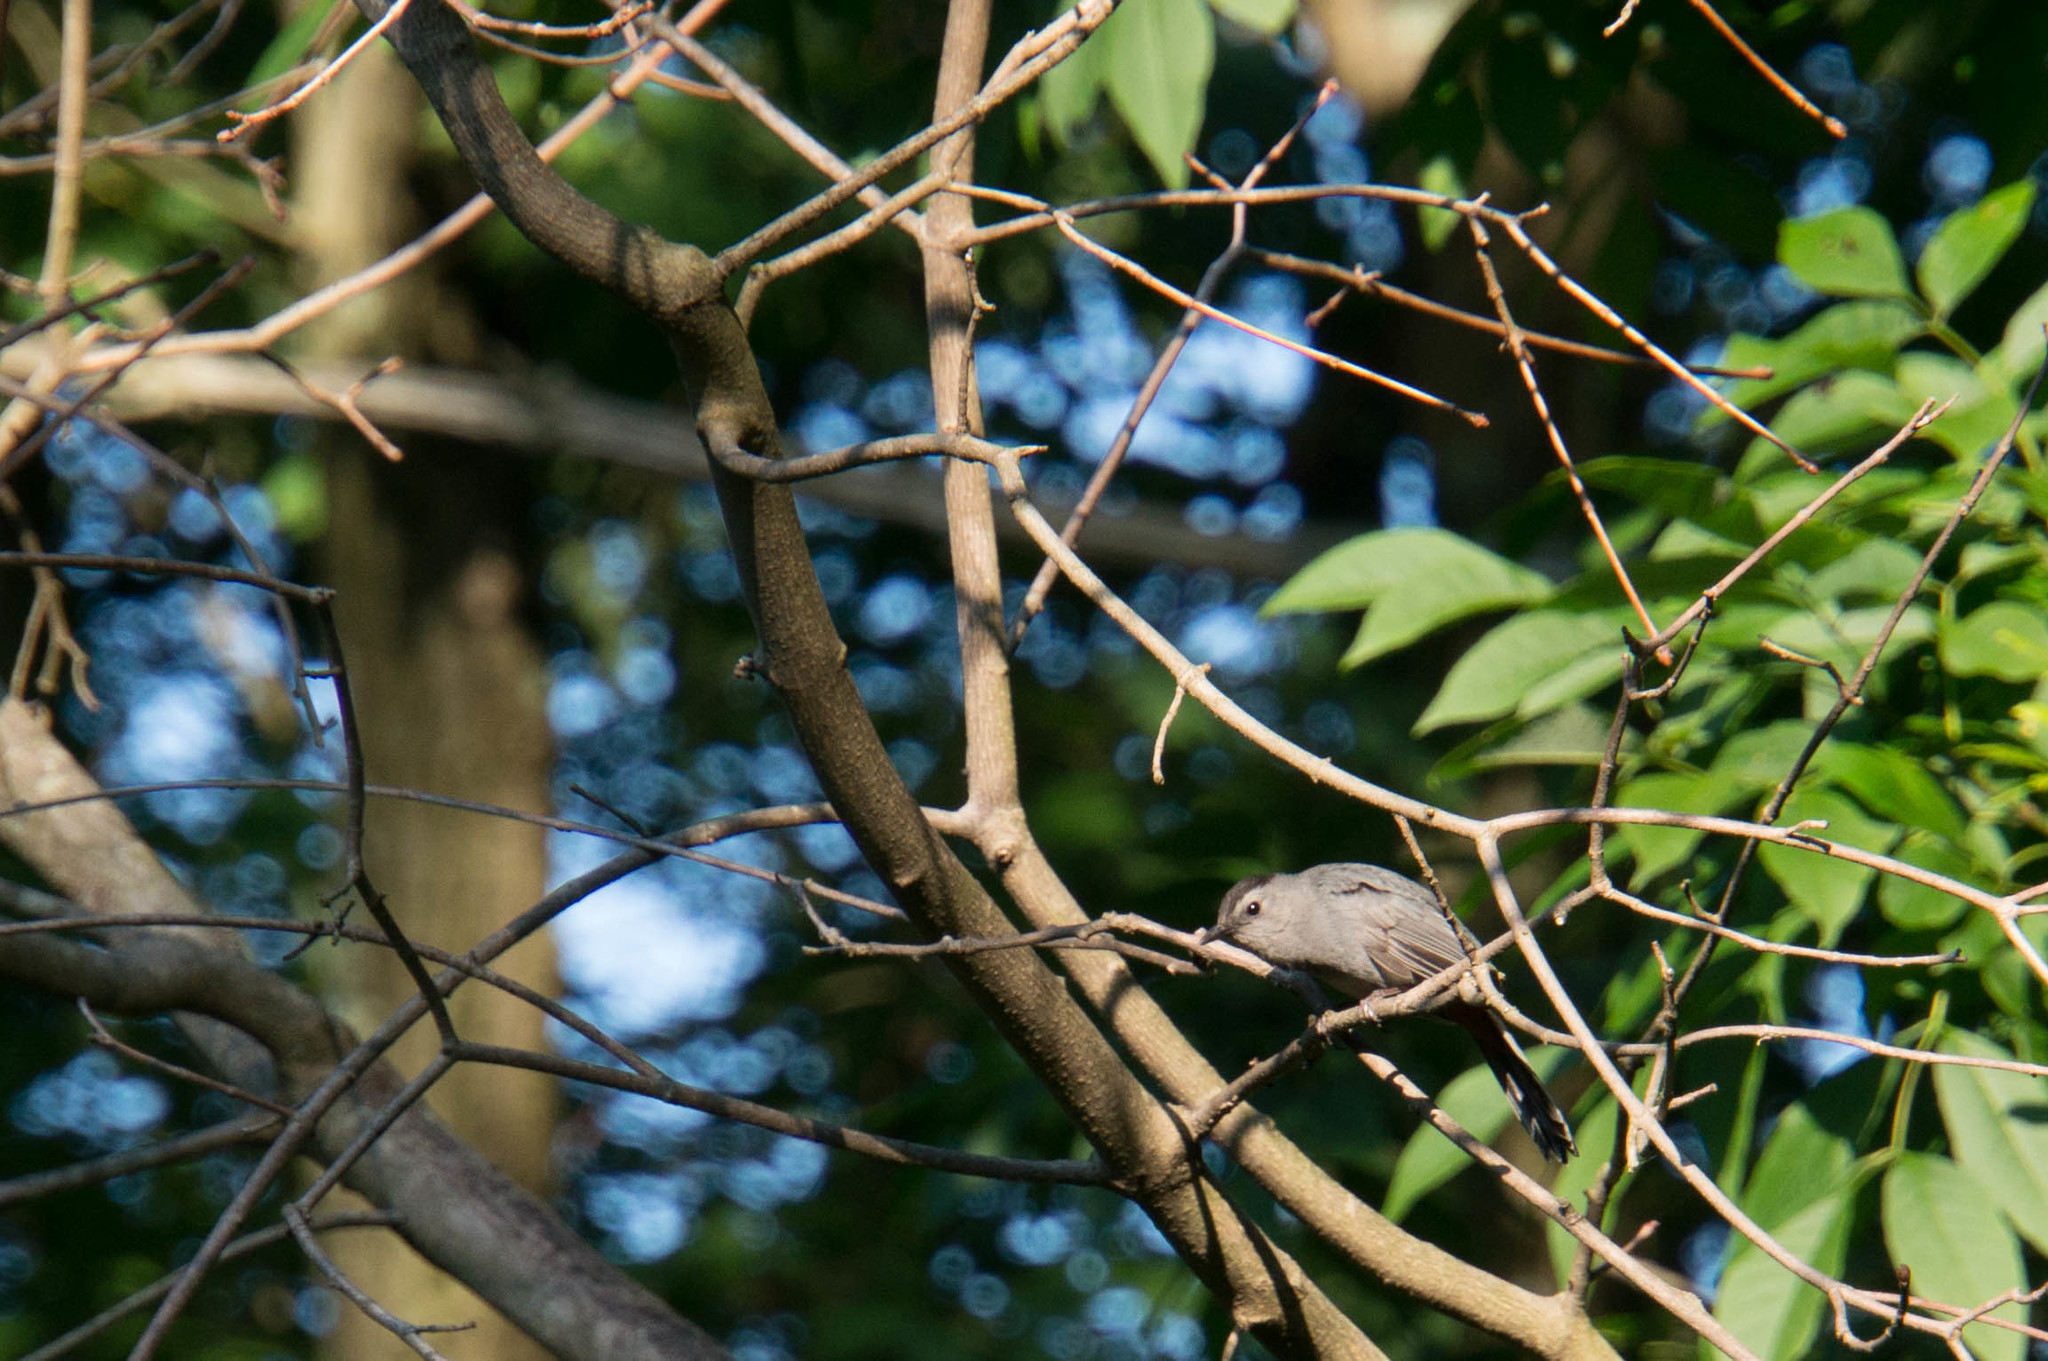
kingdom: Animalia
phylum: Chordata
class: Aves
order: Passeriformes
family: Mimidae
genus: Dumetella
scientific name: Dumetella carolinensis
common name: Gray catbird
